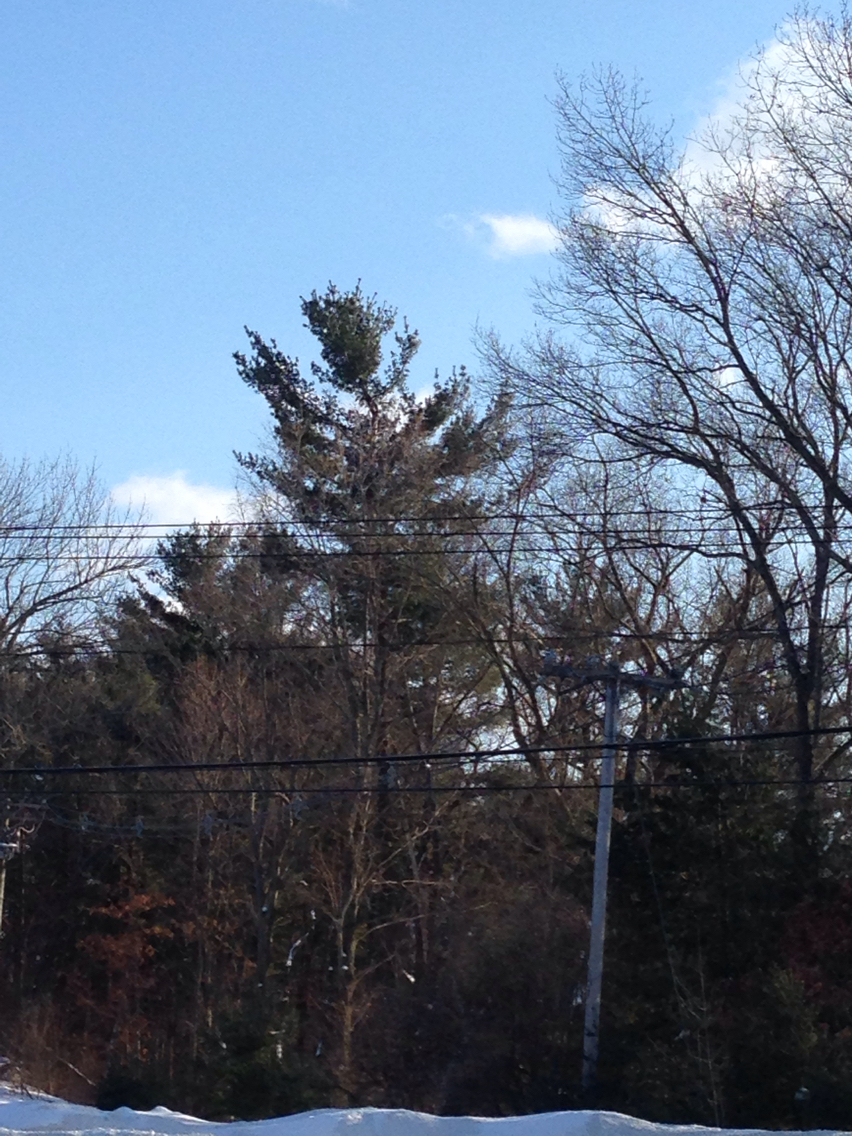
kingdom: Plantae
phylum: Tracheophyta
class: Pinopsida
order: Pinales
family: Pinaceae
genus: Pinus
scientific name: Pinus strobus
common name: Weymouth pine
